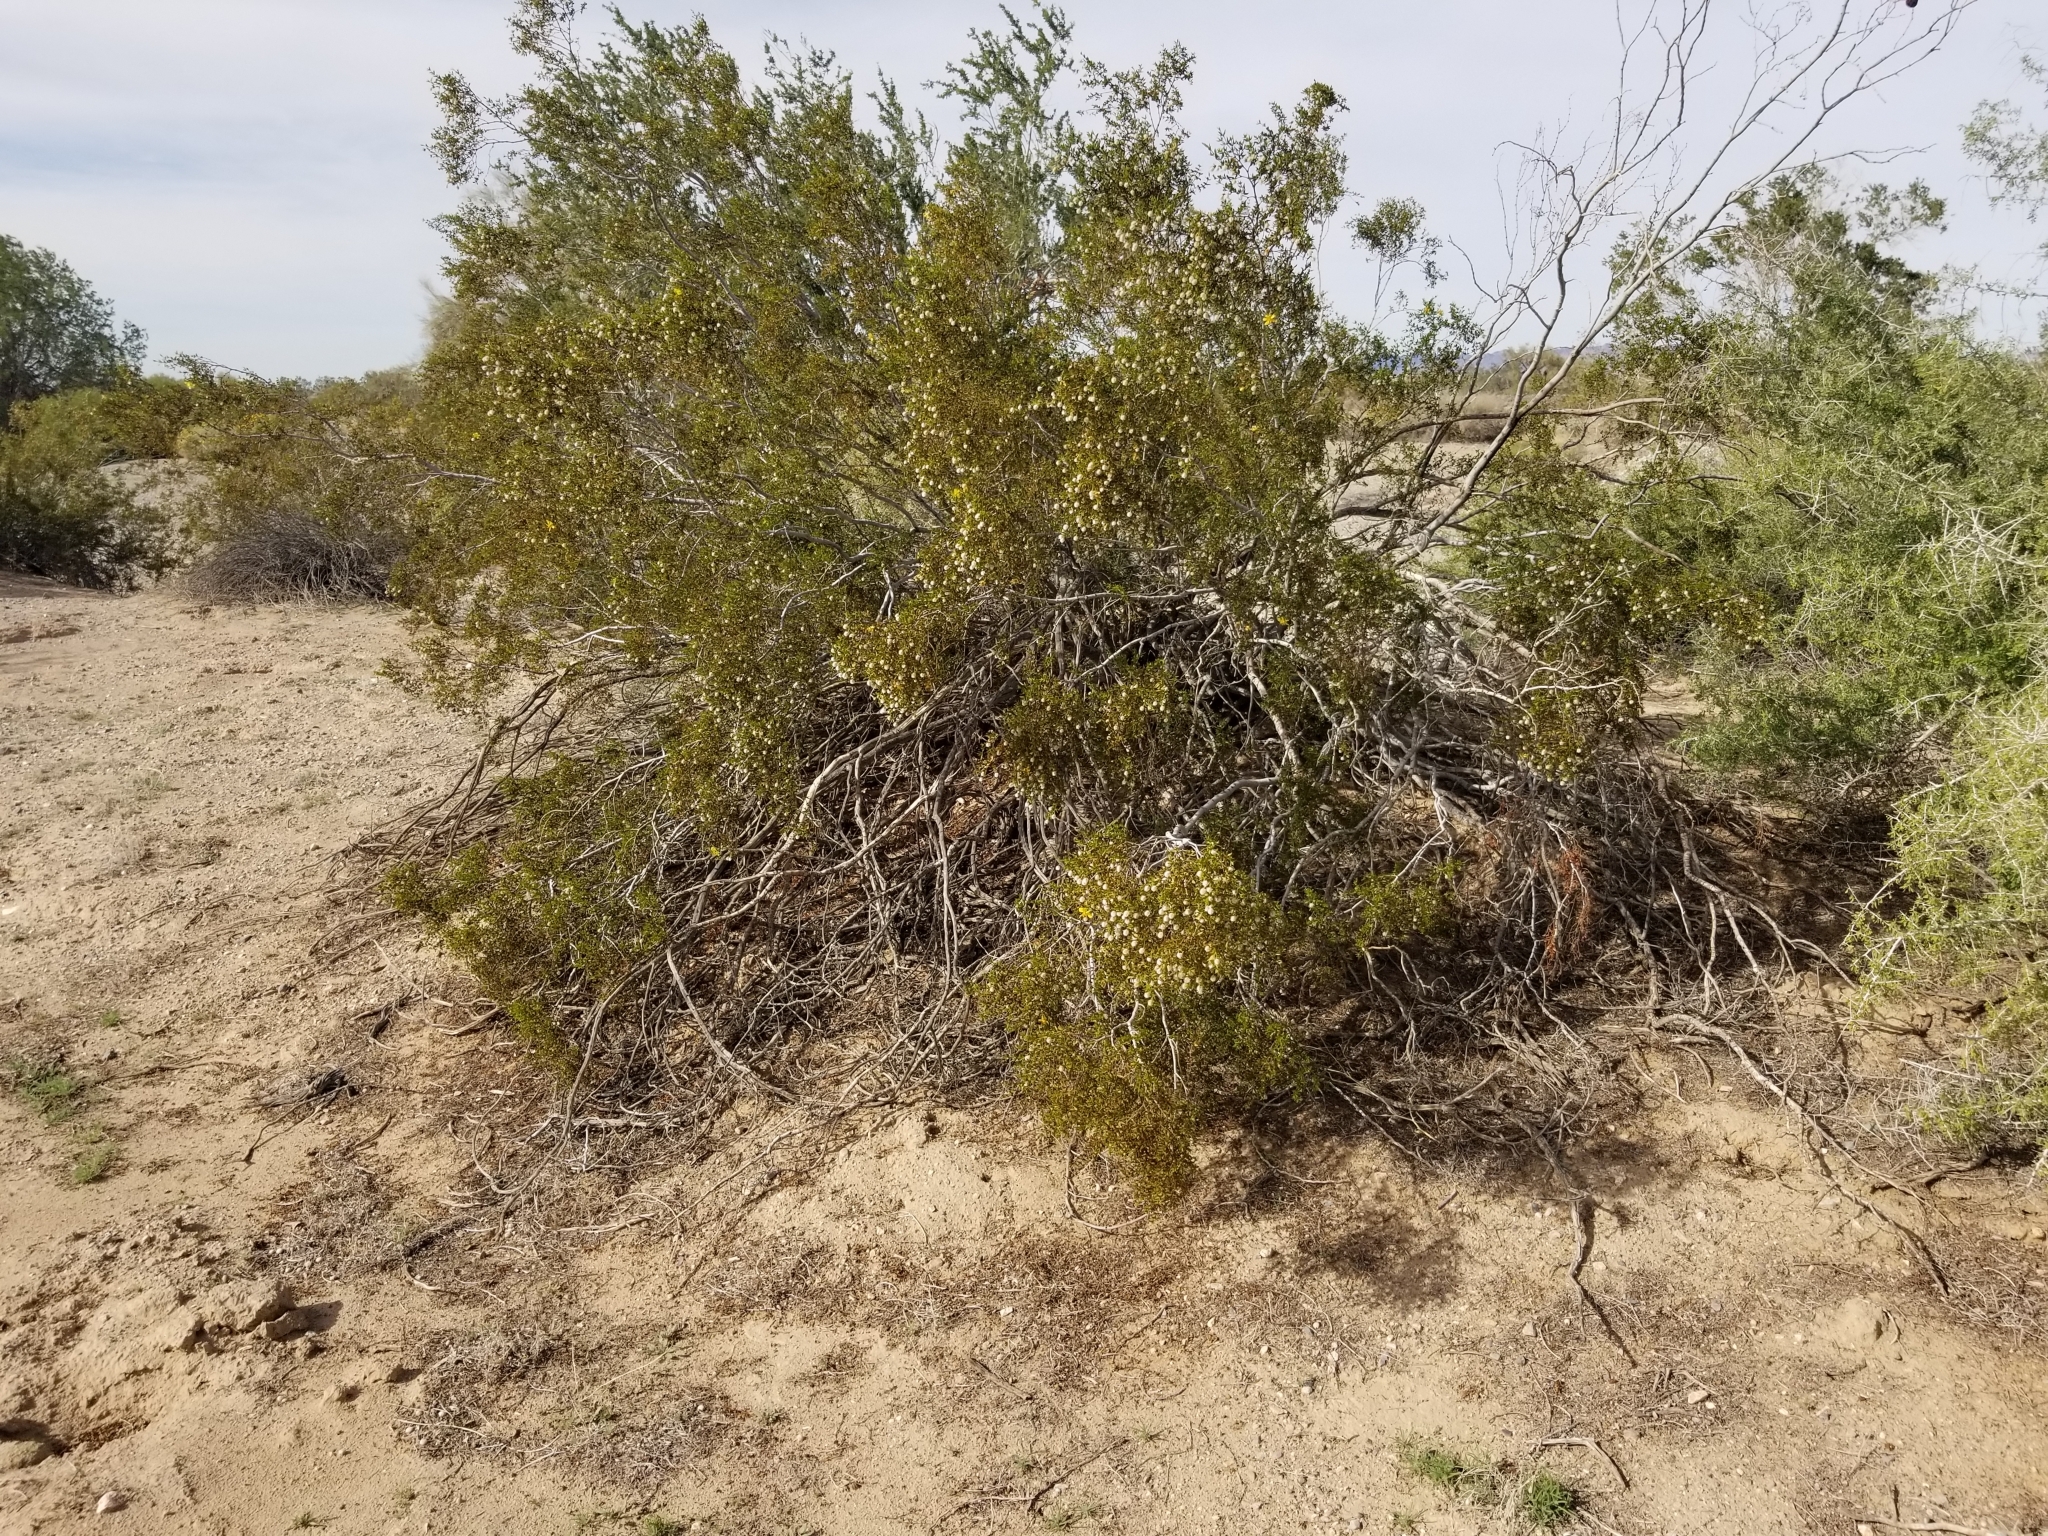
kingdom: Plantae
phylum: Tracheophyta
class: Magnoliopsida
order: Zygophyllales
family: Zygophyllaceae
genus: Larrea
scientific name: Larrea tridentata
